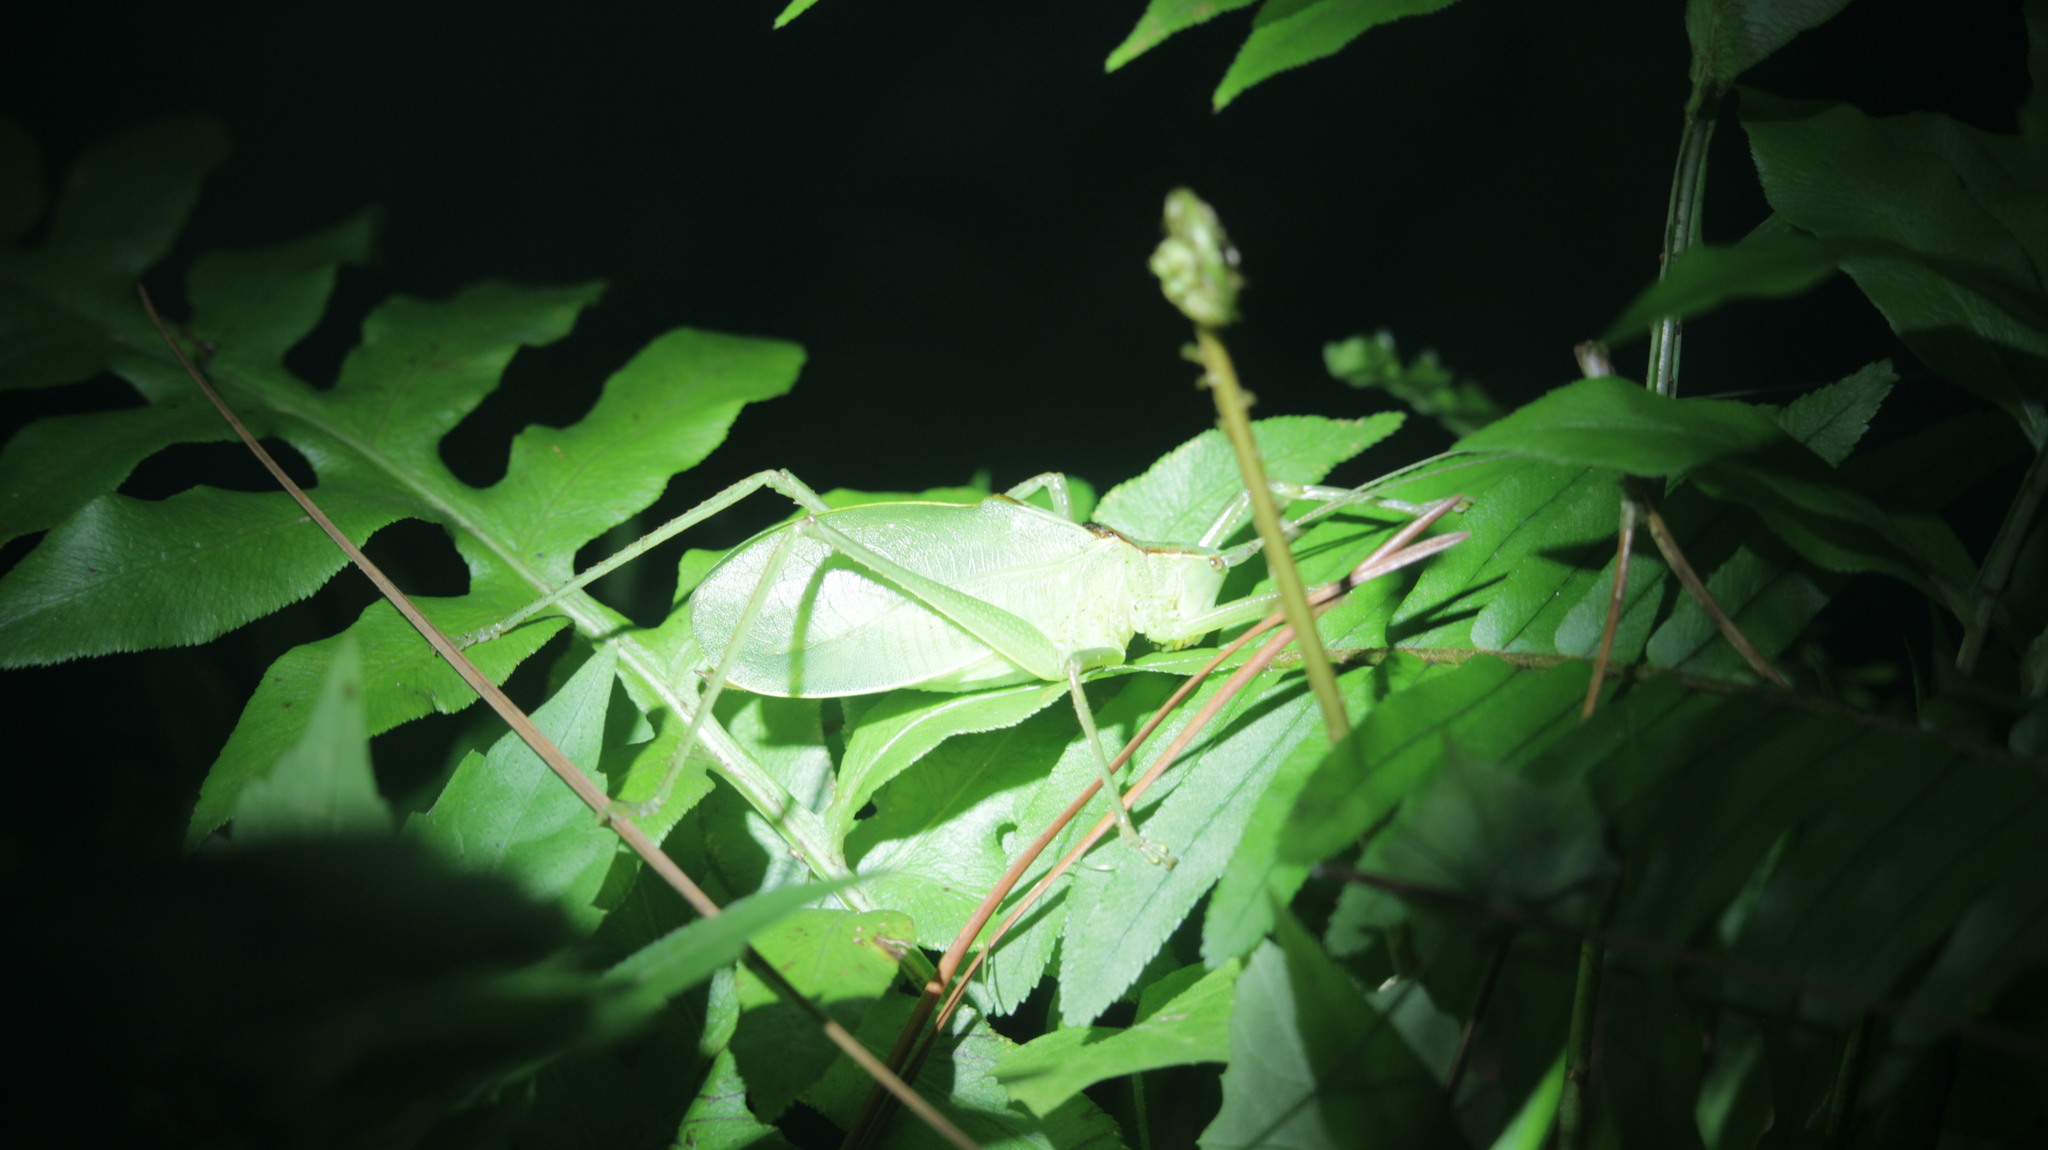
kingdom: Animalia
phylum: Arthropoda
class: Insecta
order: Orthoptera
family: Tettigoniidae
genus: Lea
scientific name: Lea floridensis
